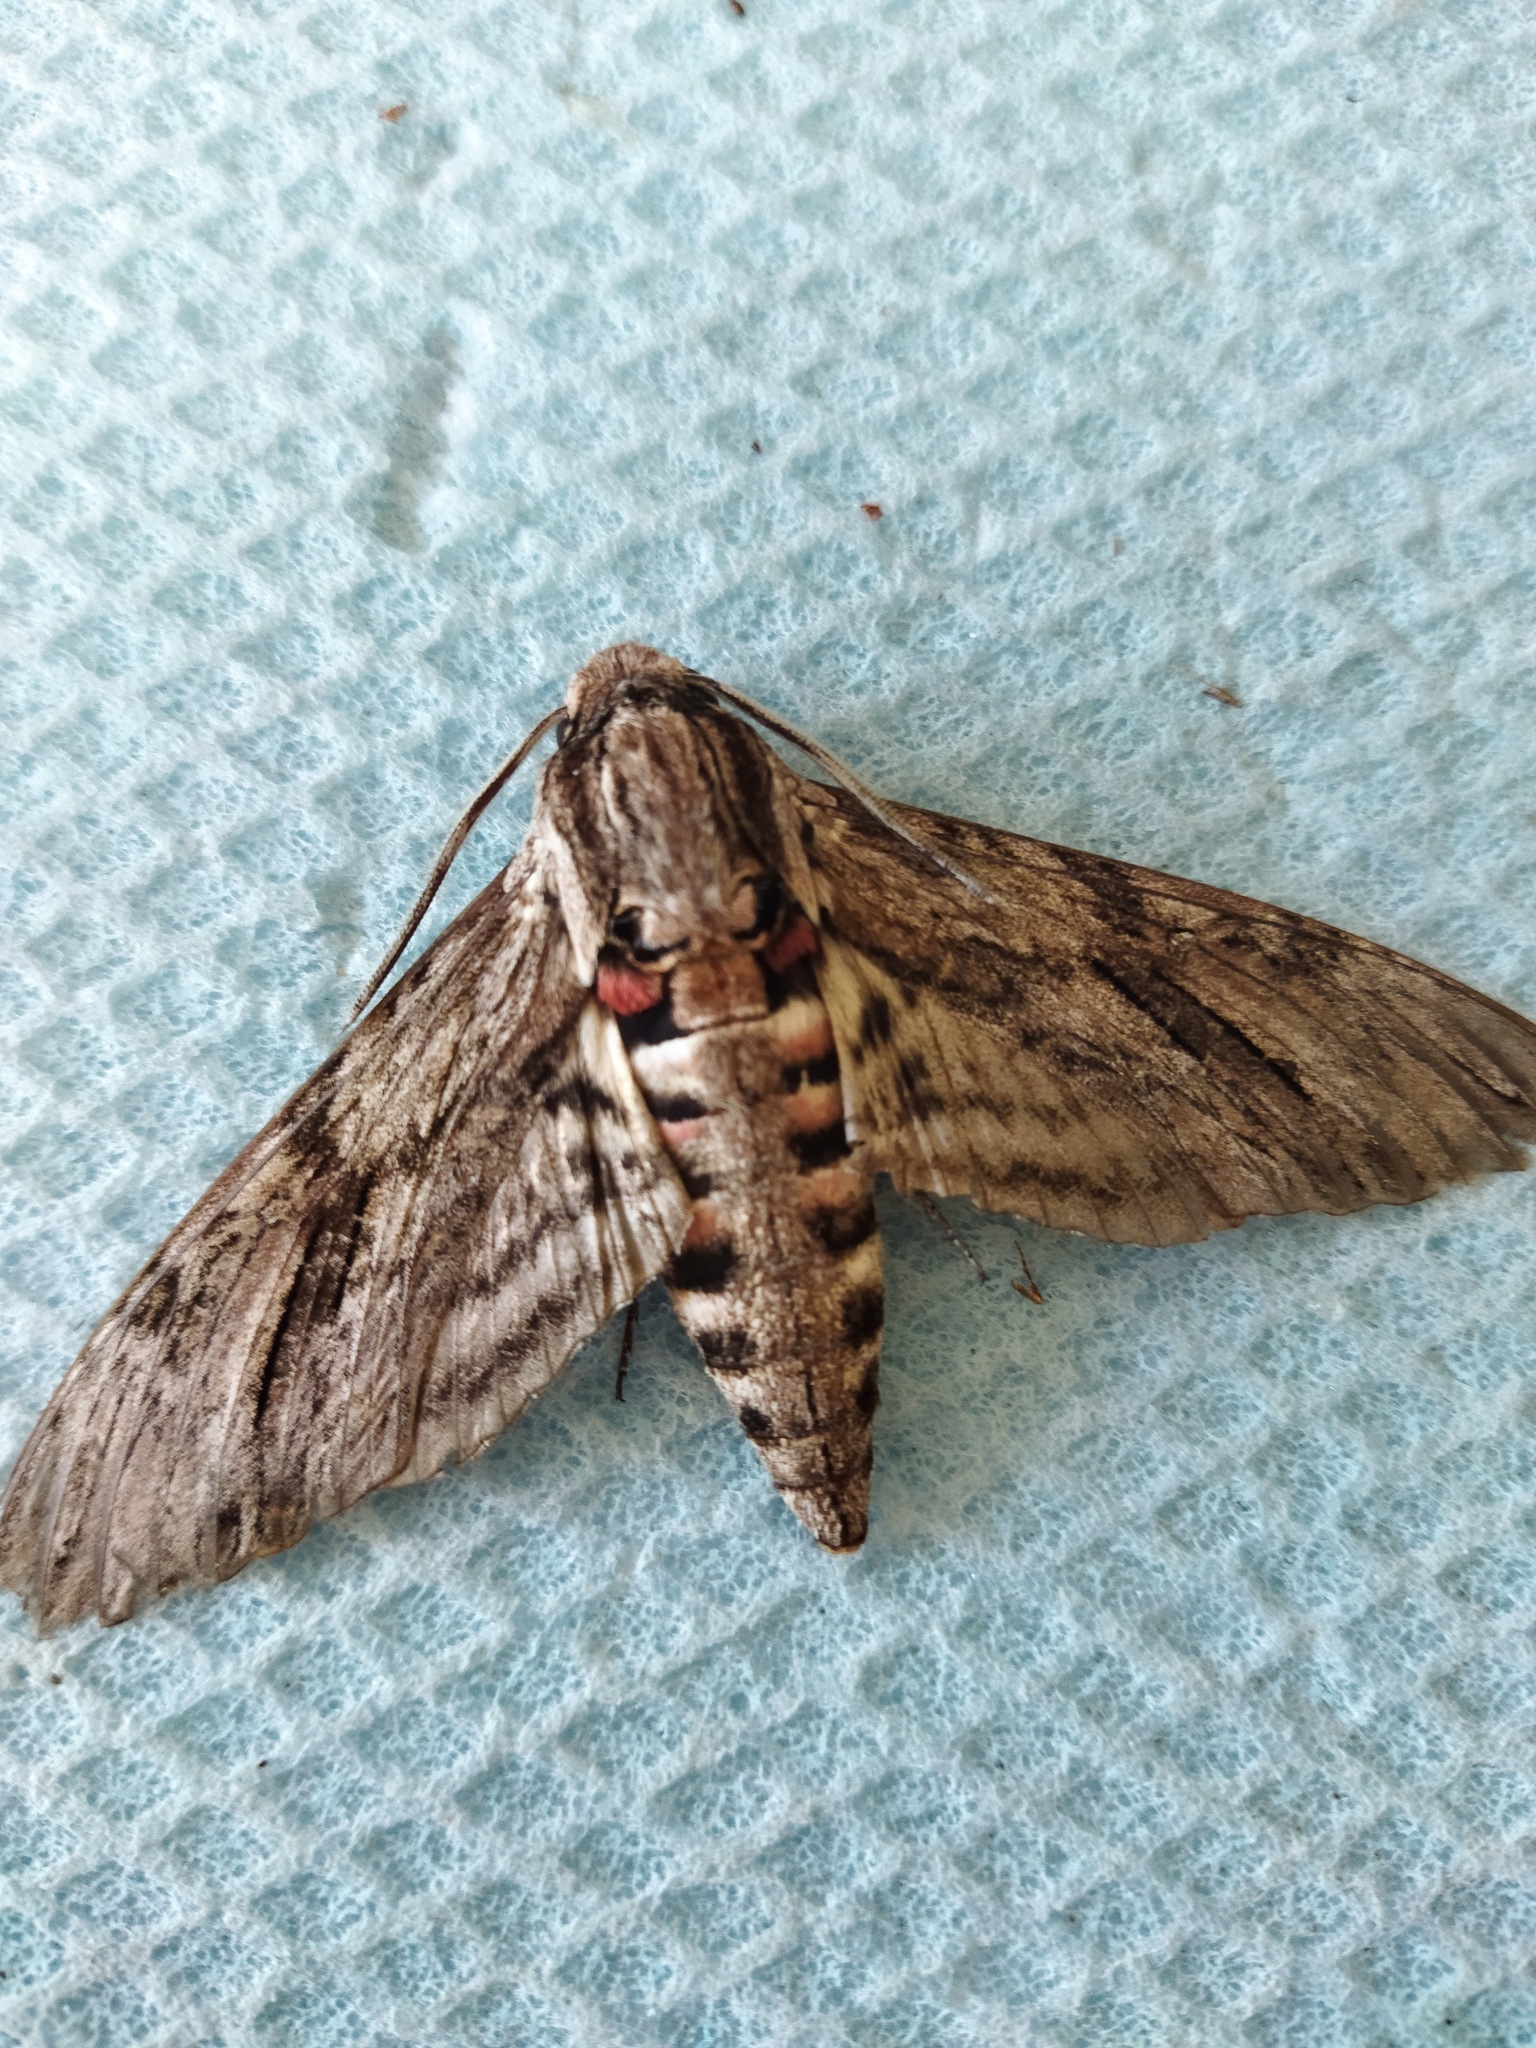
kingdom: Animalia
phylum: Arthropoda
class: Insecta
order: Lepidoptera
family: Sphingidae
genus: Agrius
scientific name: Agrius convolvuli
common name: Convolvulus hawkmoth
